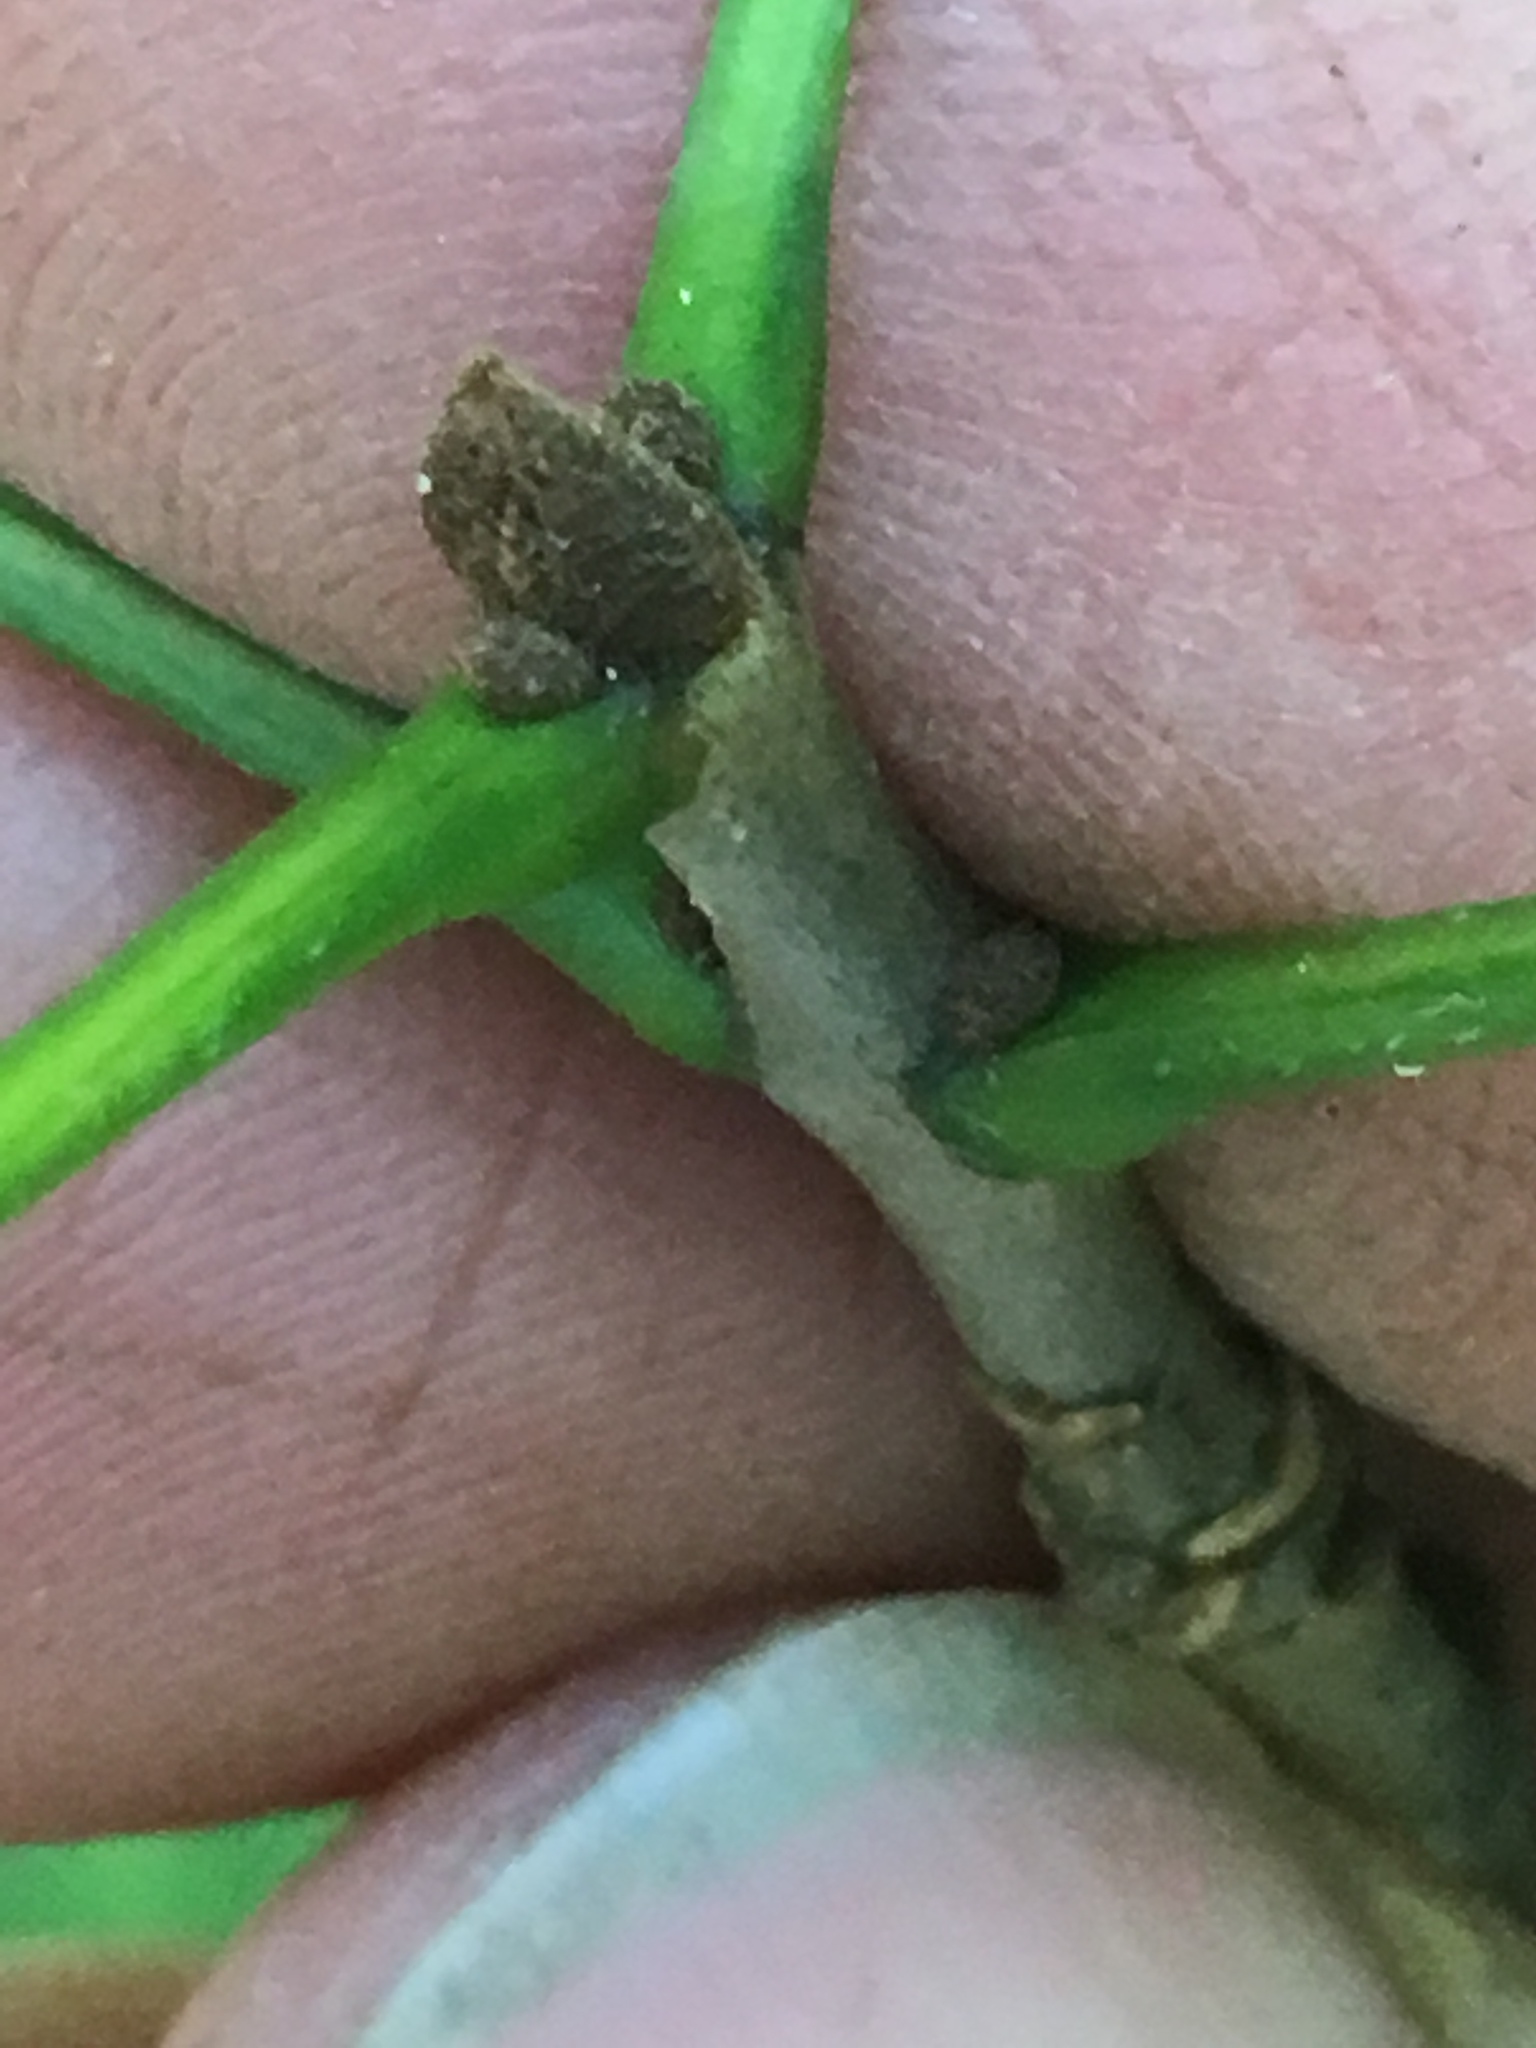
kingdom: Plantae
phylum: Tracheophyta
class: Magnoliopsida
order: Lamiales
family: Oleaceae
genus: Fraxinus
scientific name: Fraxinus pennsylvanica
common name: Green ash
